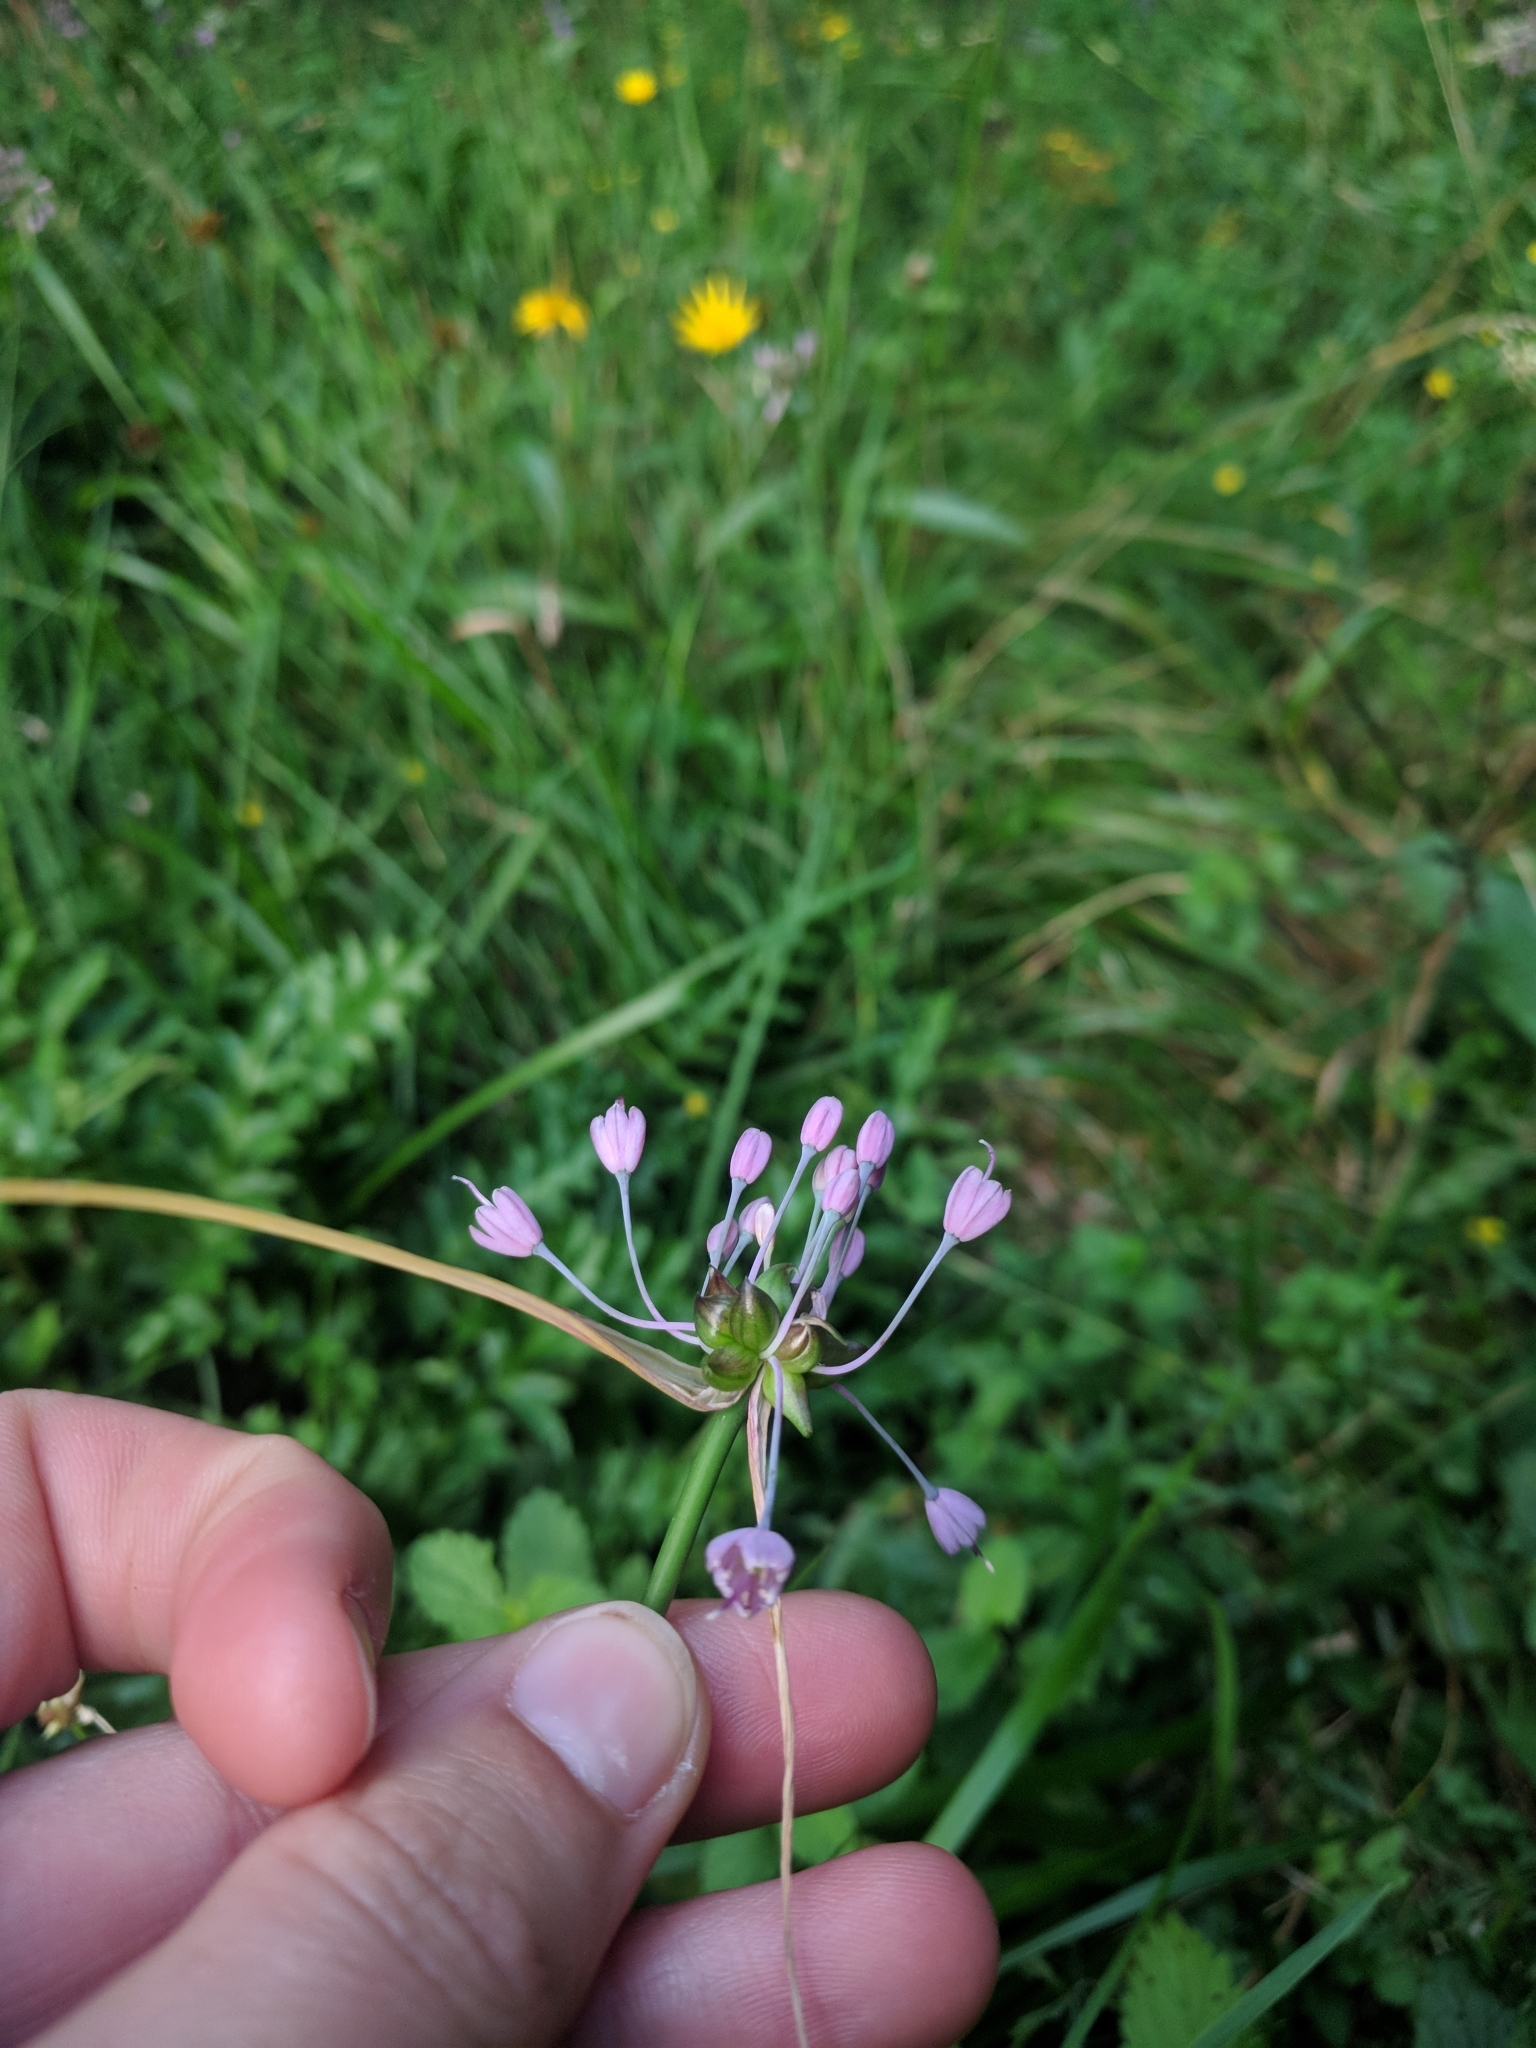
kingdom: Plantae
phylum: Tracheophyta
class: Liliopsida
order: Asparagales
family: Amaryllidaceae
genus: Allium
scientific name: Allium carinatum
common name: Keeled garlic
